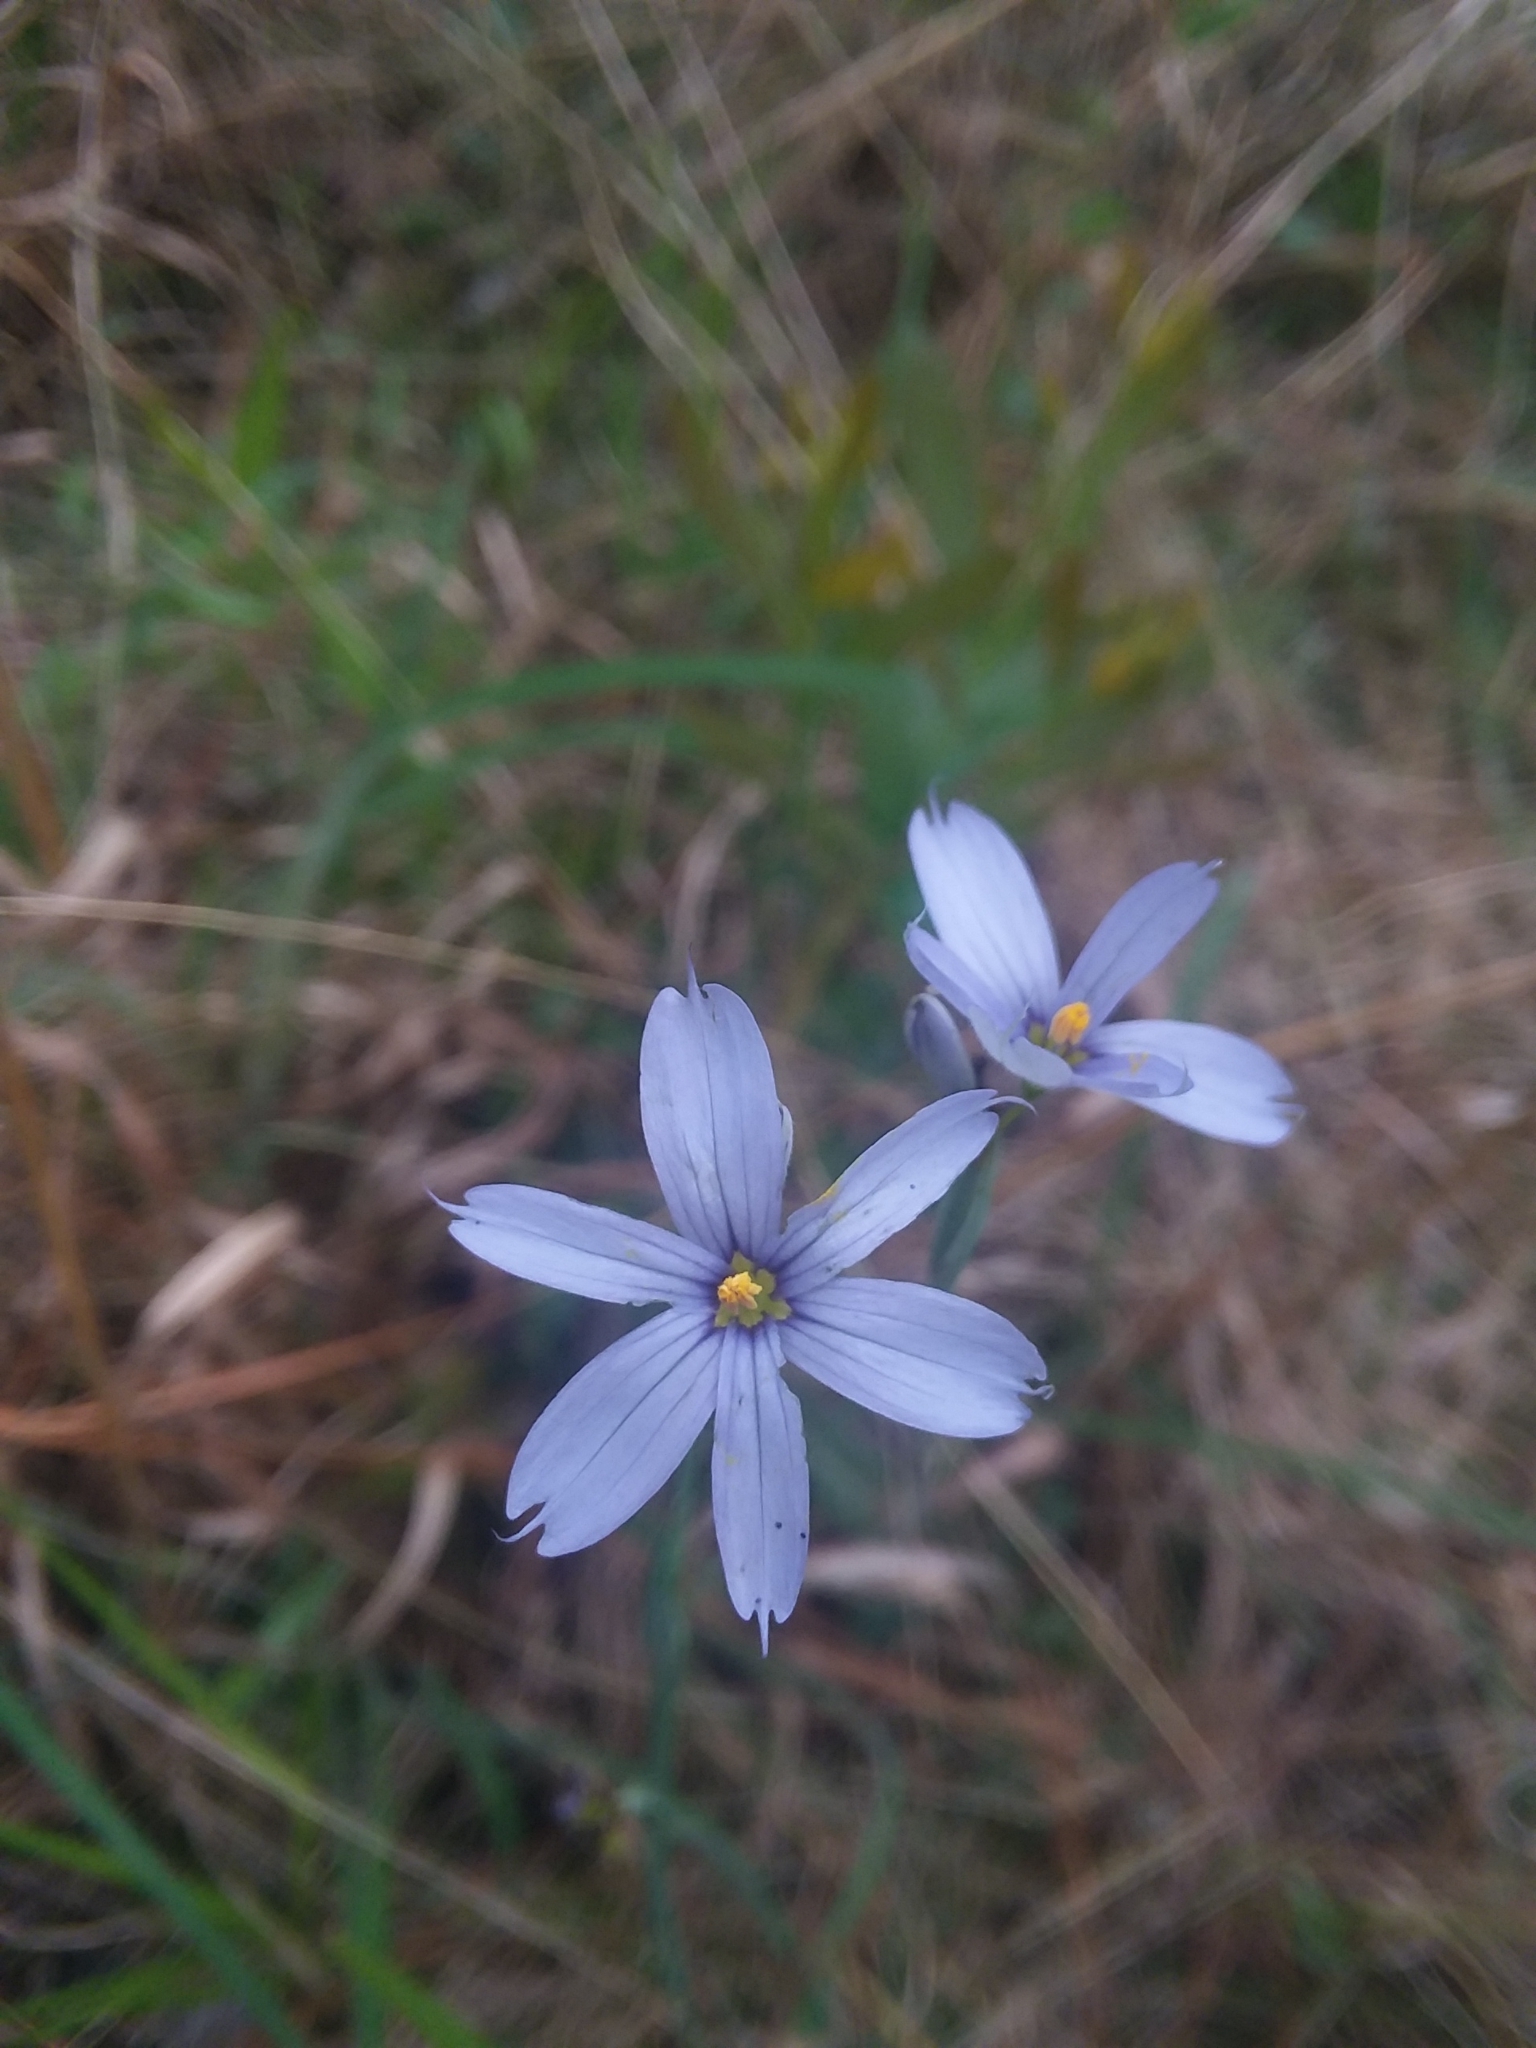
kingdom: Plantae
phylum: Tracheophyta
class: Liliopsida
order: Asparagales
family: Iridaceae
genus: Sisyrinchium
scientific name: Sisyrinchium nashii
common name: Nash's blue-eyed-grass
